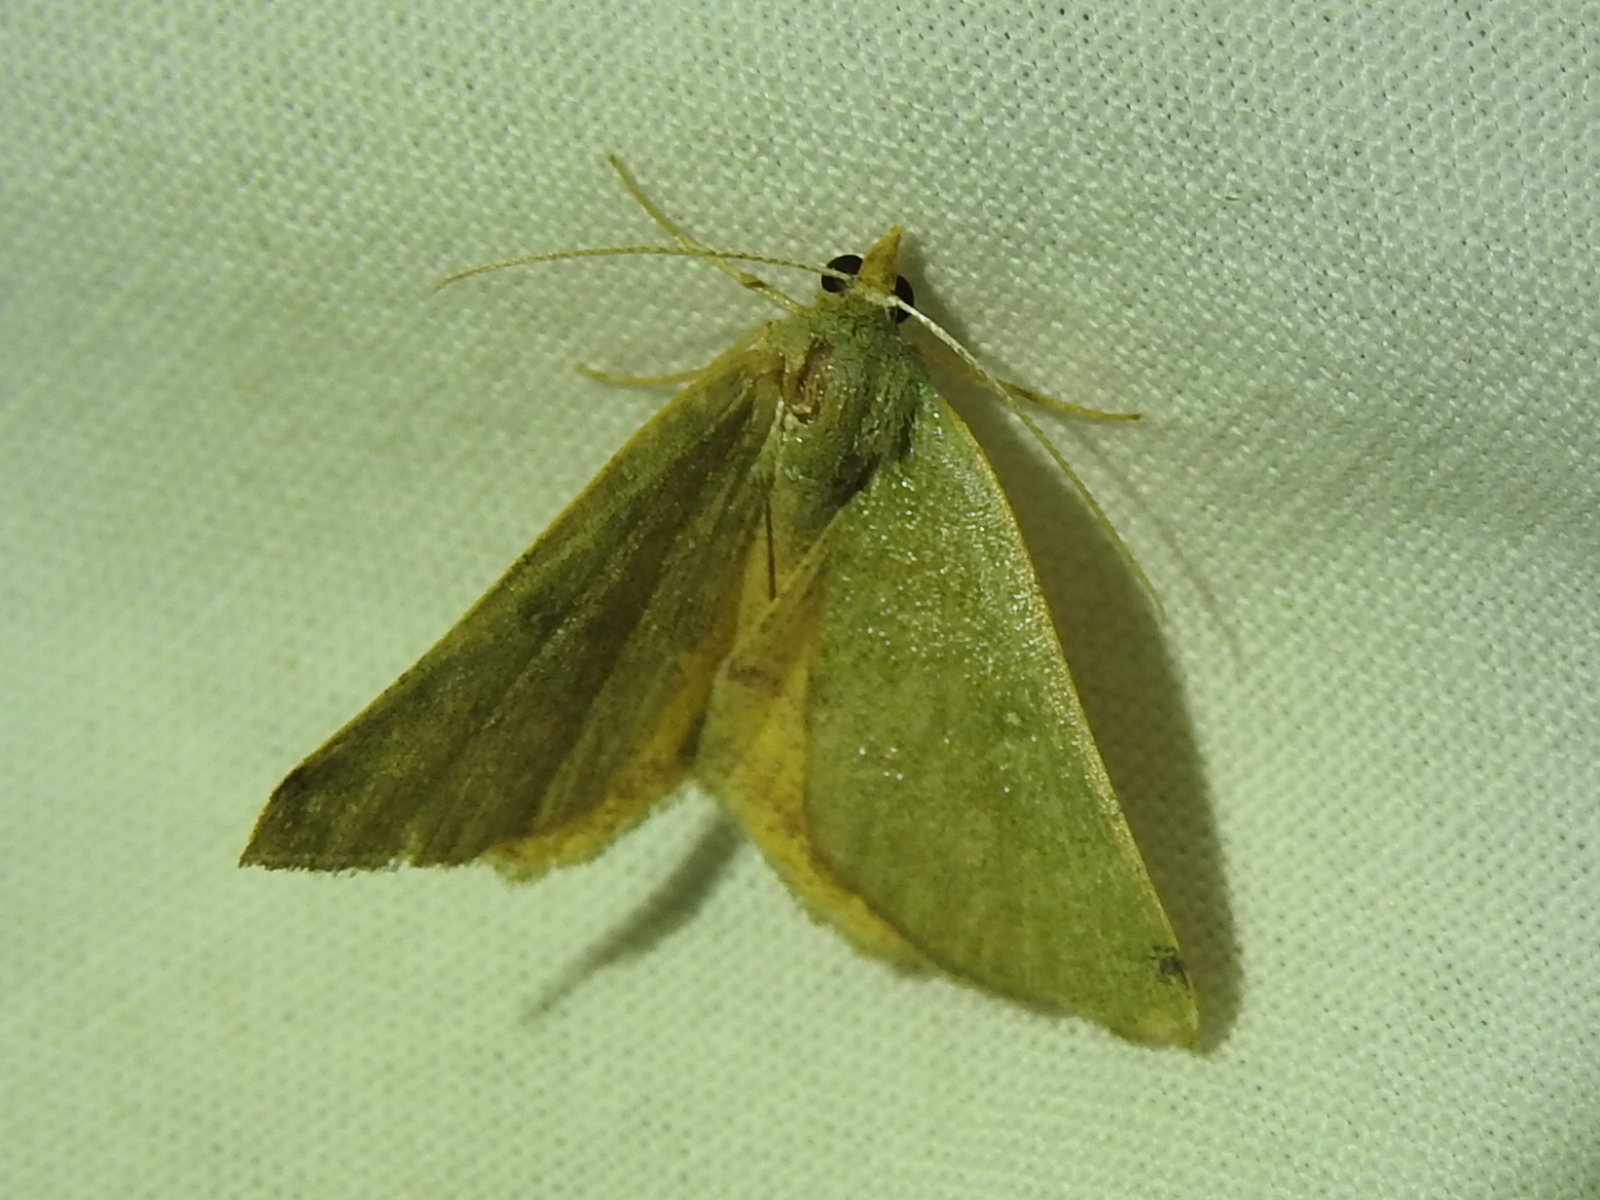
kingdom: Animalia
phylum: Arthropoda
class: Insecta
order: Lepidoptera
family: Geometridae
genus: Chloraspilates
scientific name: Chloraspilates bicoloraria
